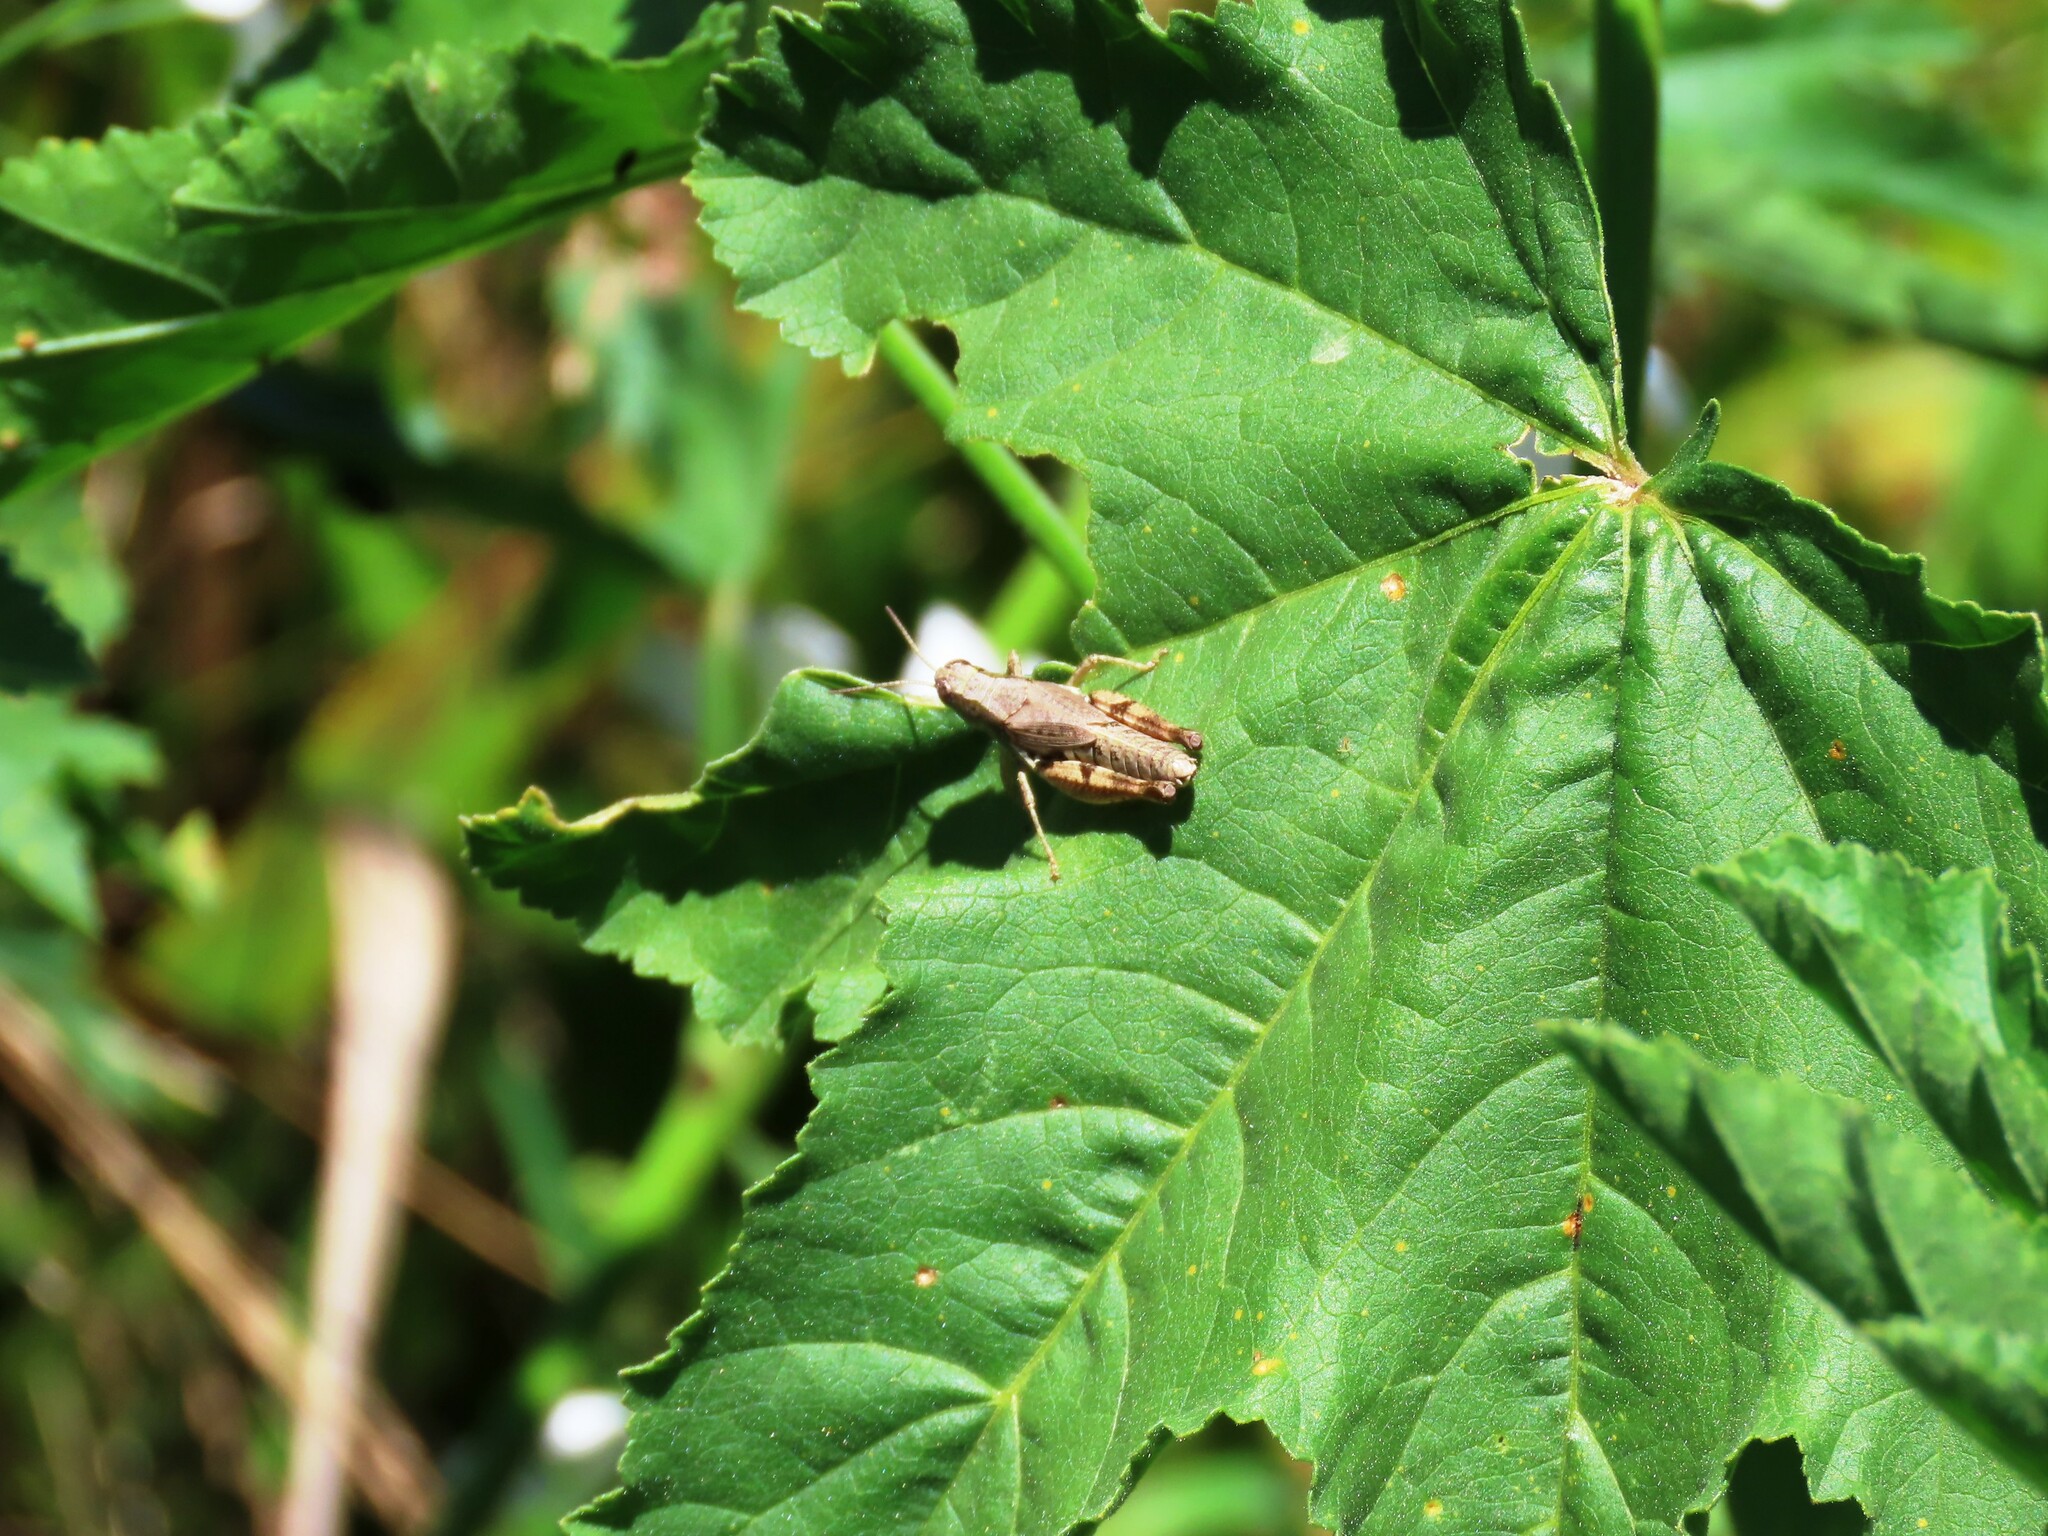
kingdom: Animalia
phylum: Arthropoda
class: Insecta
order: Orthoptera
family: Acrididae
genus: Phaulacridium
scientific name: Phaulacridium vittatum
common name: Wingless grasshopper
